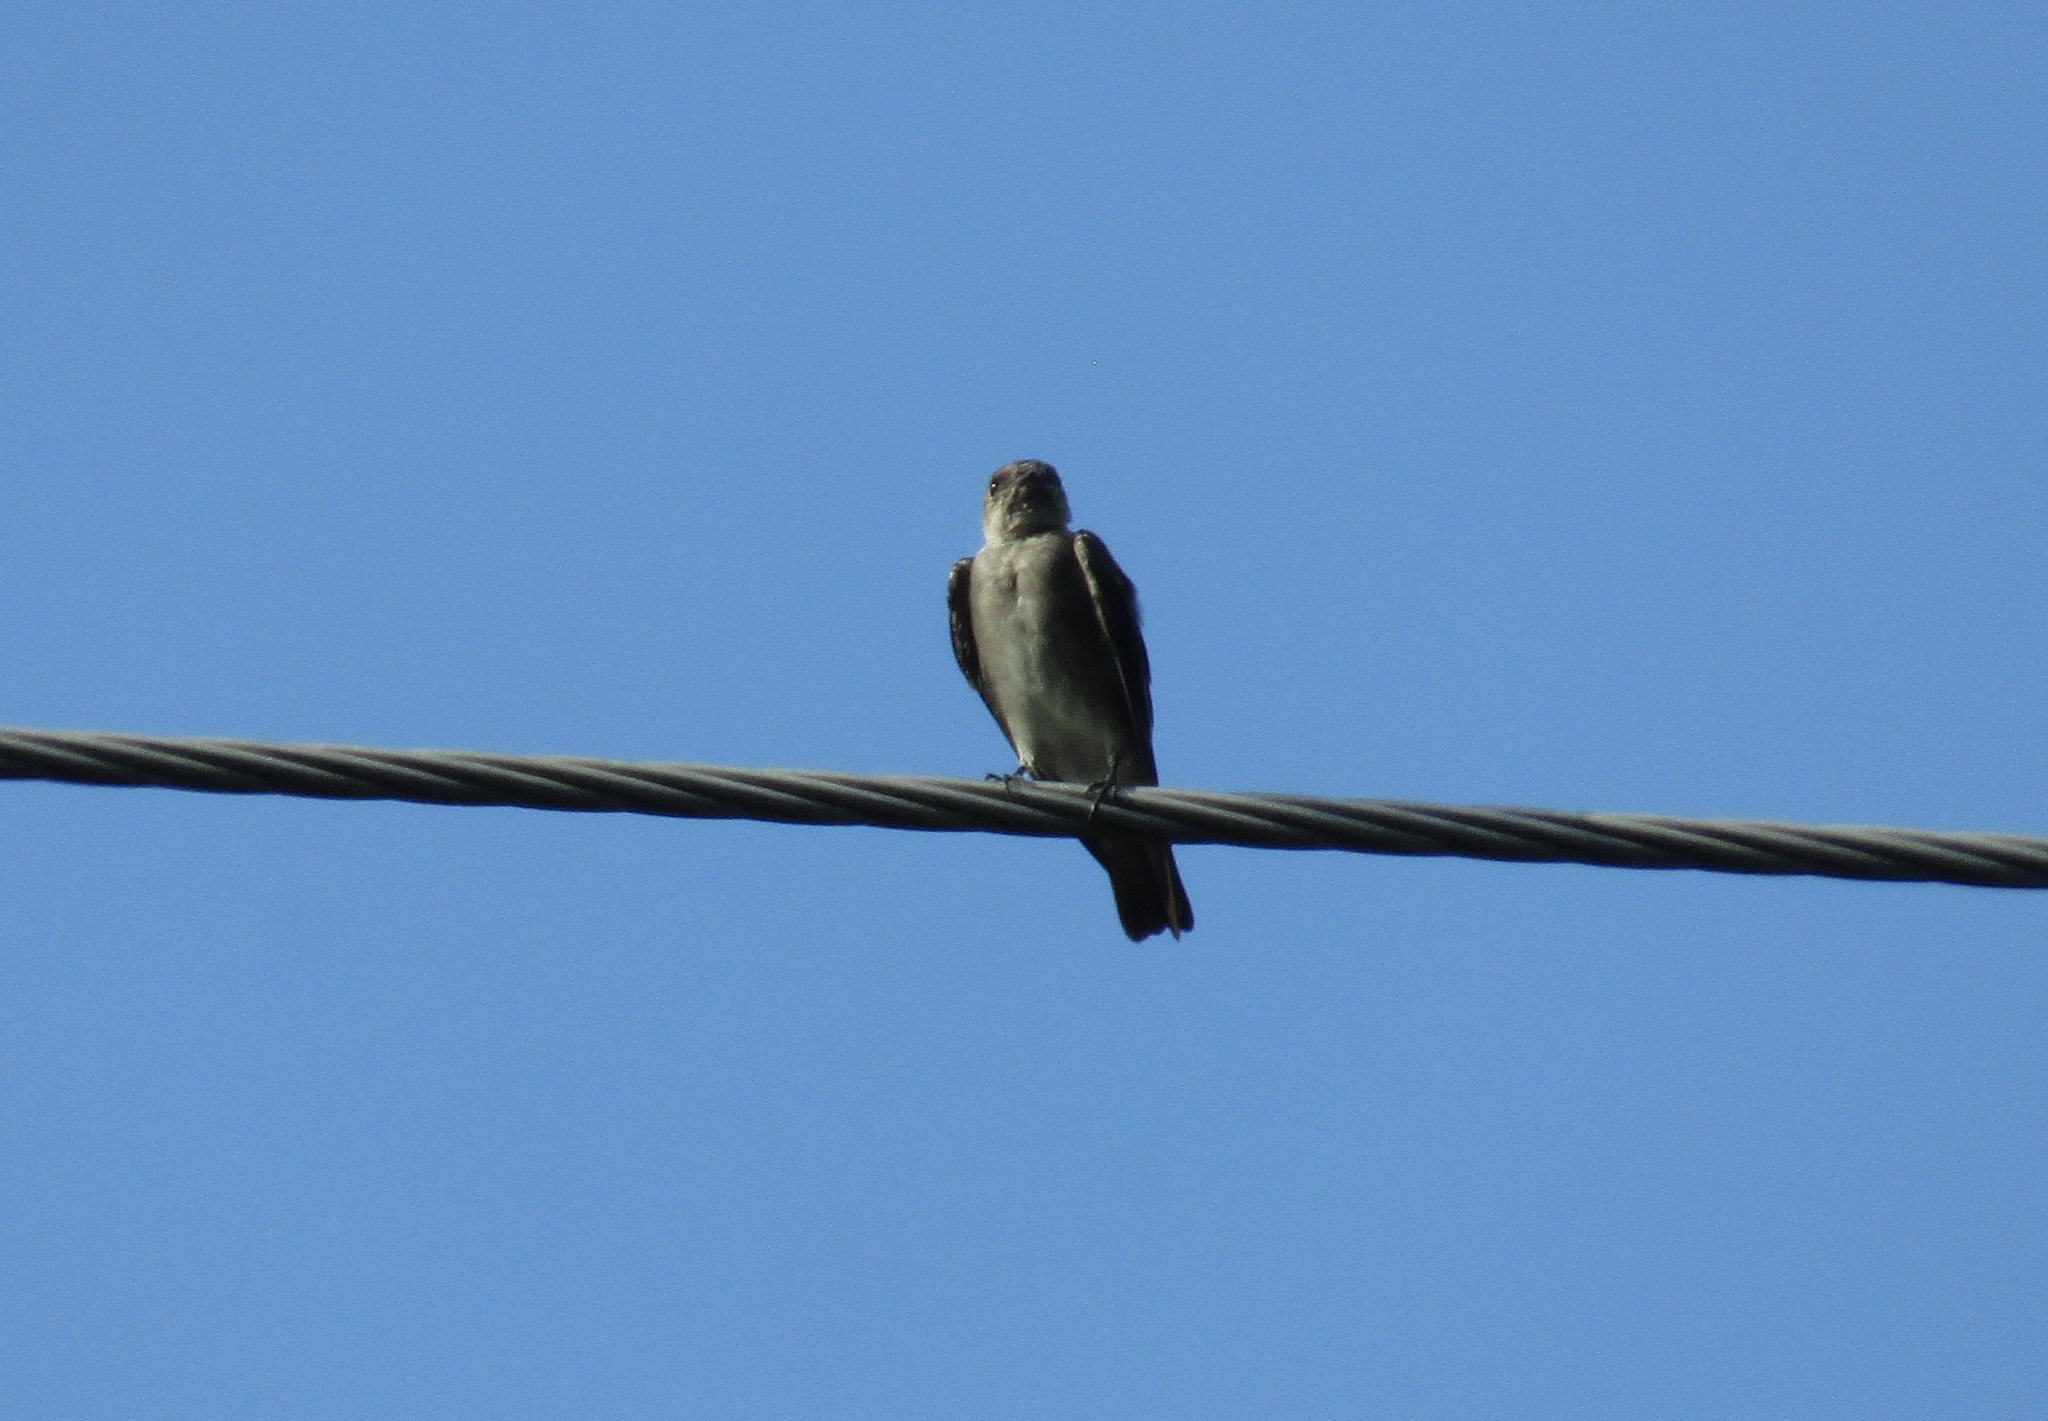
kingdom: Animalia
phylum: Chordata
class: Aves
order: Passeriformes
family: Hirundinidae
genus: Stelgidopteryx
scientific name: Stelgidopteryx serripennis
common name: Northern rough-winged swallow
